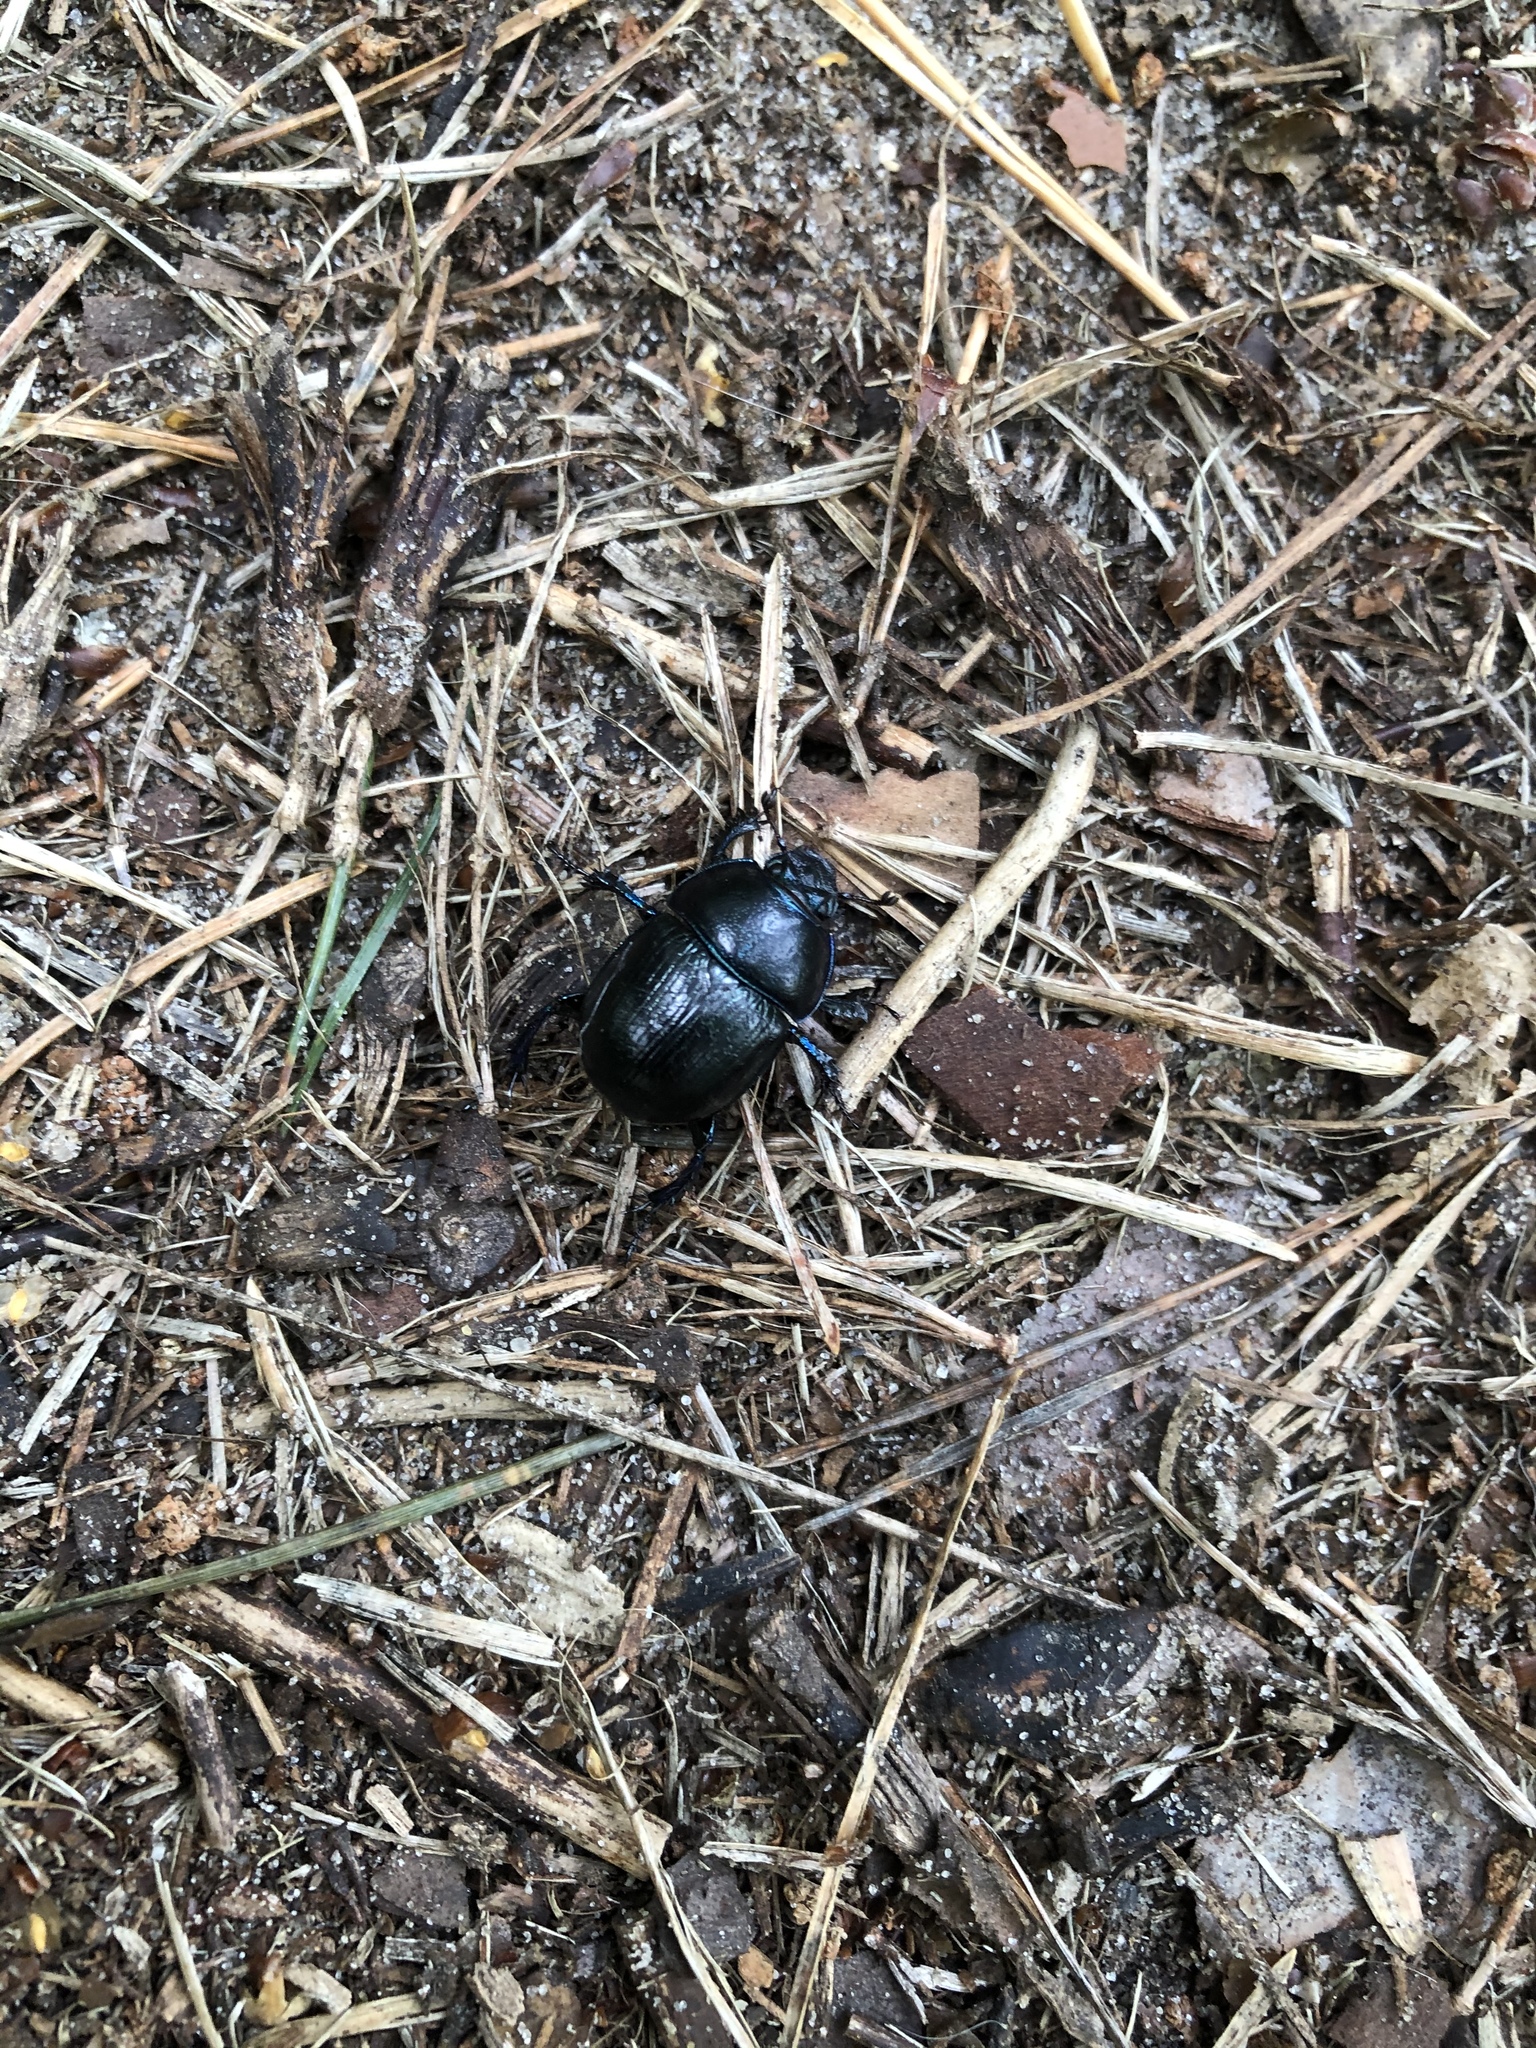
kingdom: Animalia
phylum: Arthropoda
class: Insecta
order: Coleoptera
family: Geotrupidae
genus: Anoplotrupes
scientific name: Anoplotrupes stercorosus
